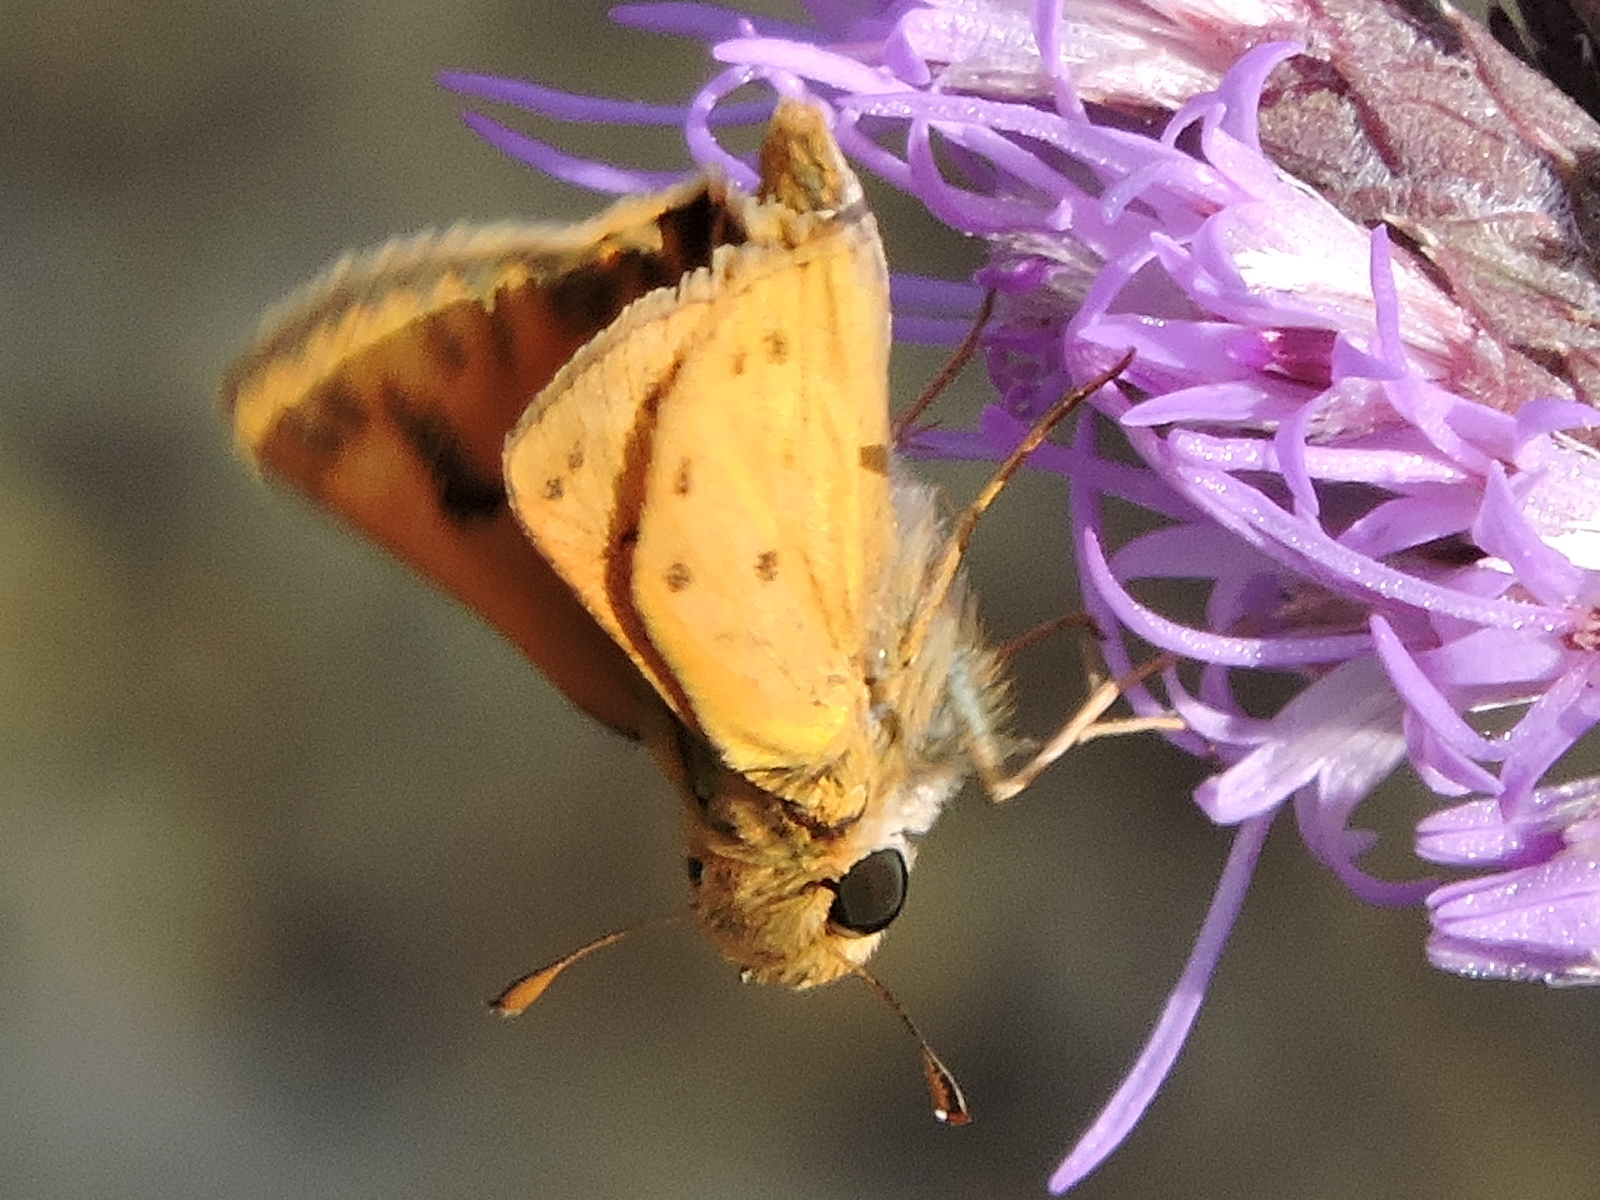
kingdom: Animalia
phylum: Arthropoda
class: Insecta
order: Lepidoptera
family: Hesperiidae
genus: Hylephila
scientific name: Hylephila phyleus
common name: Fiery skipper
